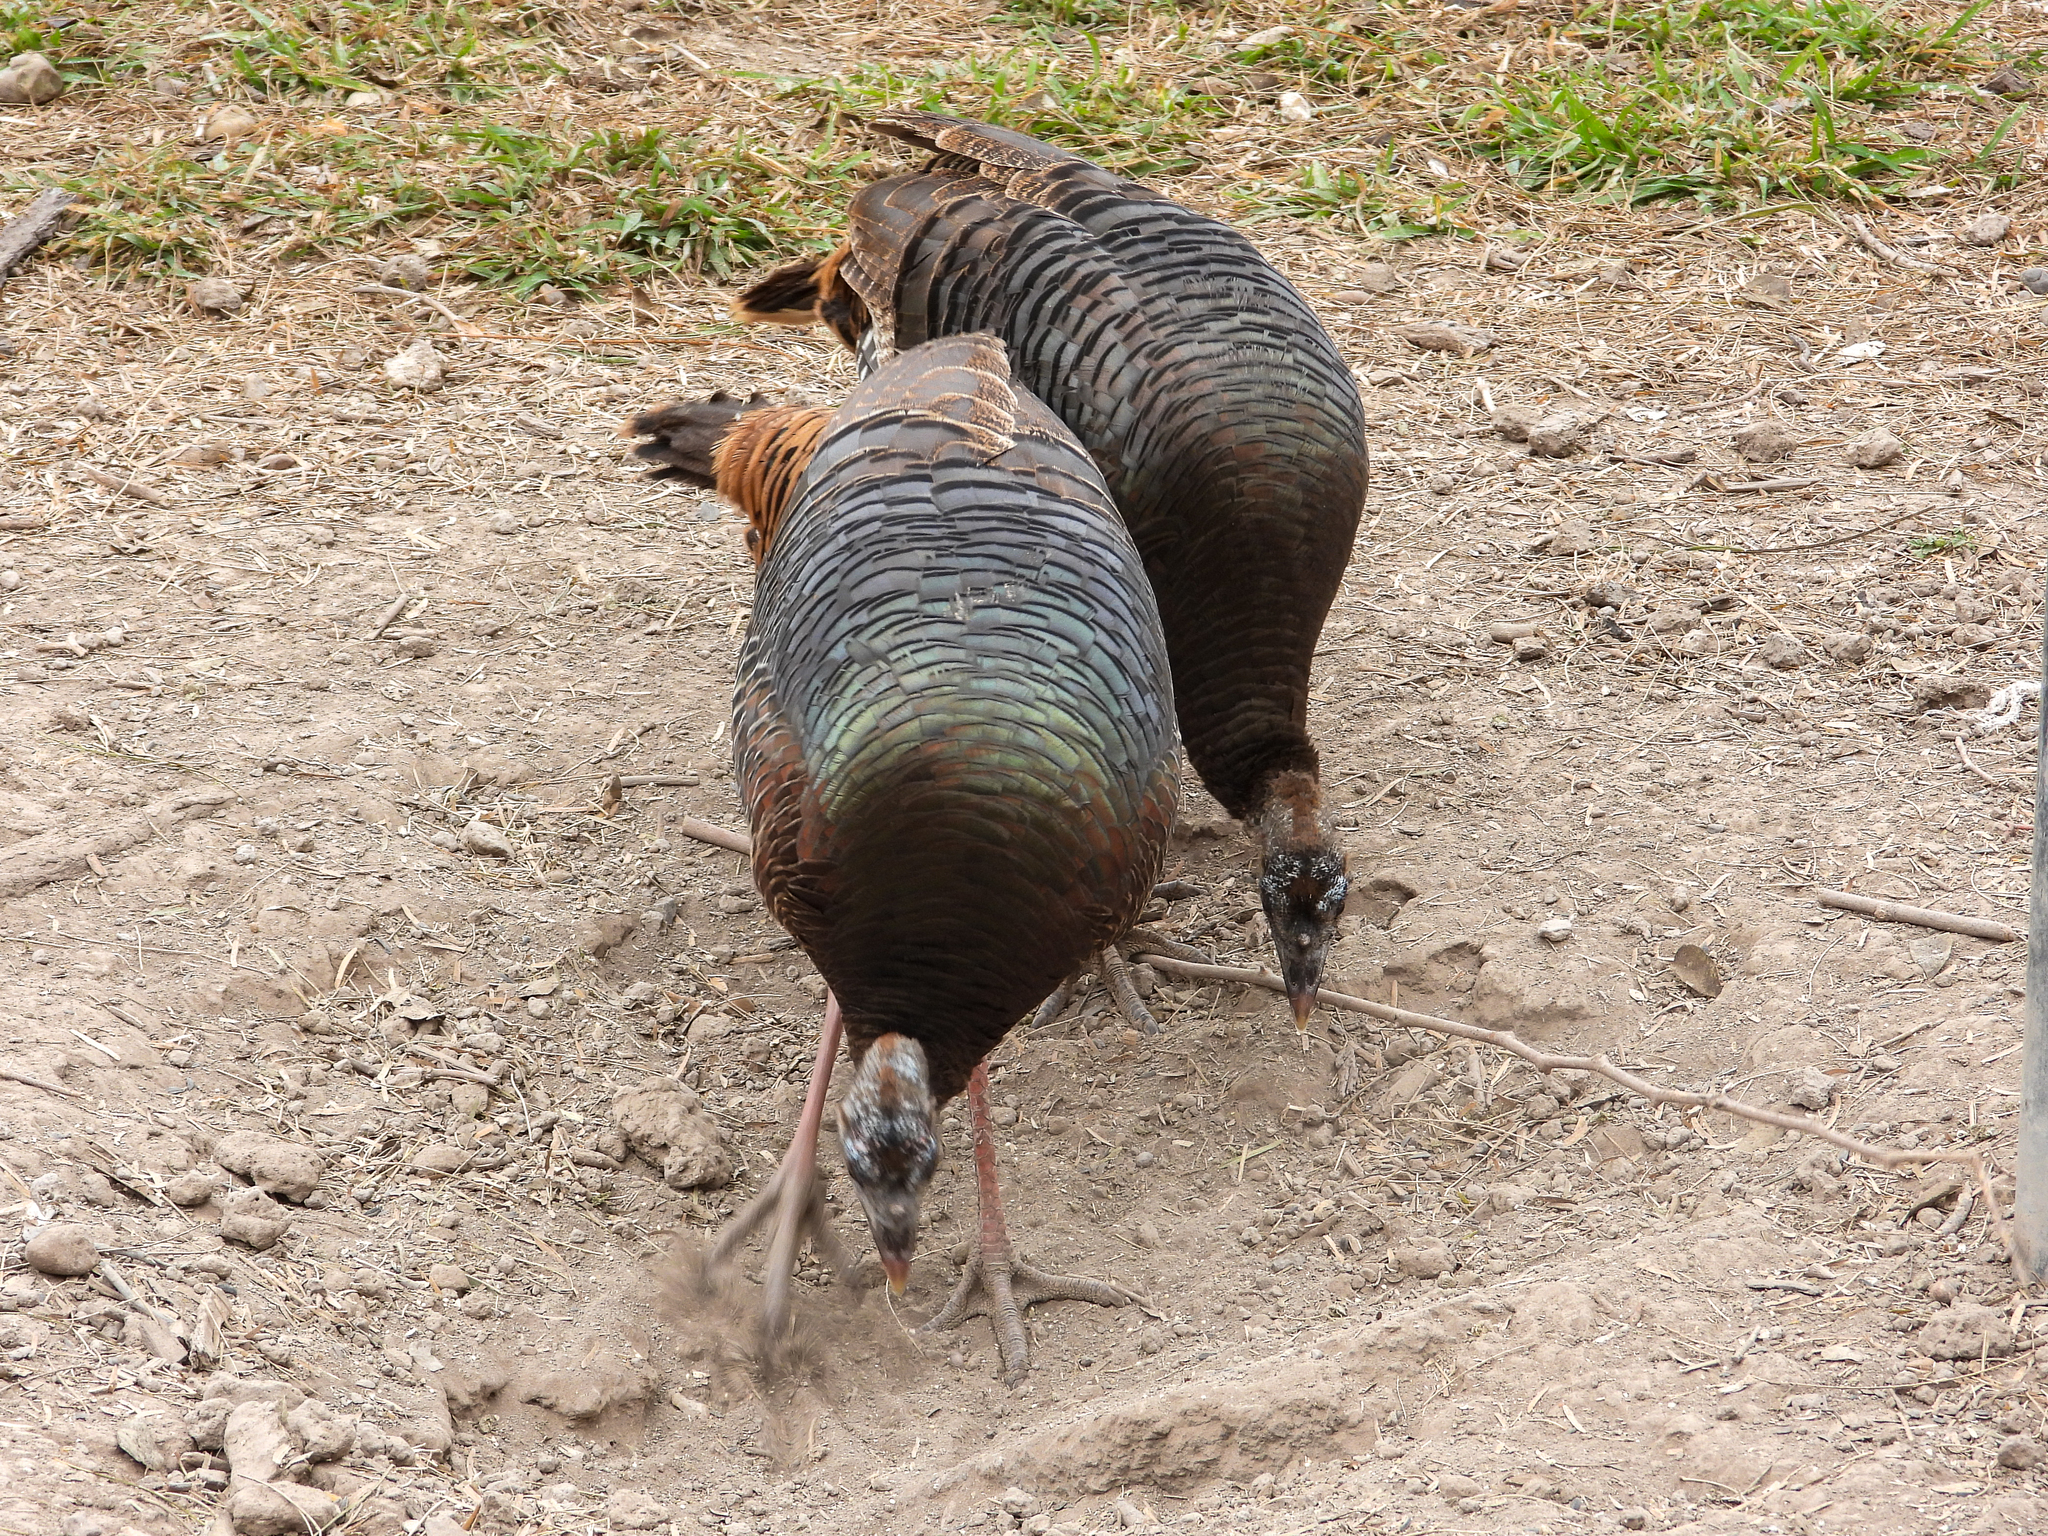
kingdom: Animalia
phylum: Chordata
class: Aves
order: Galliformes
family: Phasianidae
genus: Meleagris
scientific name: Meleagris gallopavo
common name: Wild turkey
